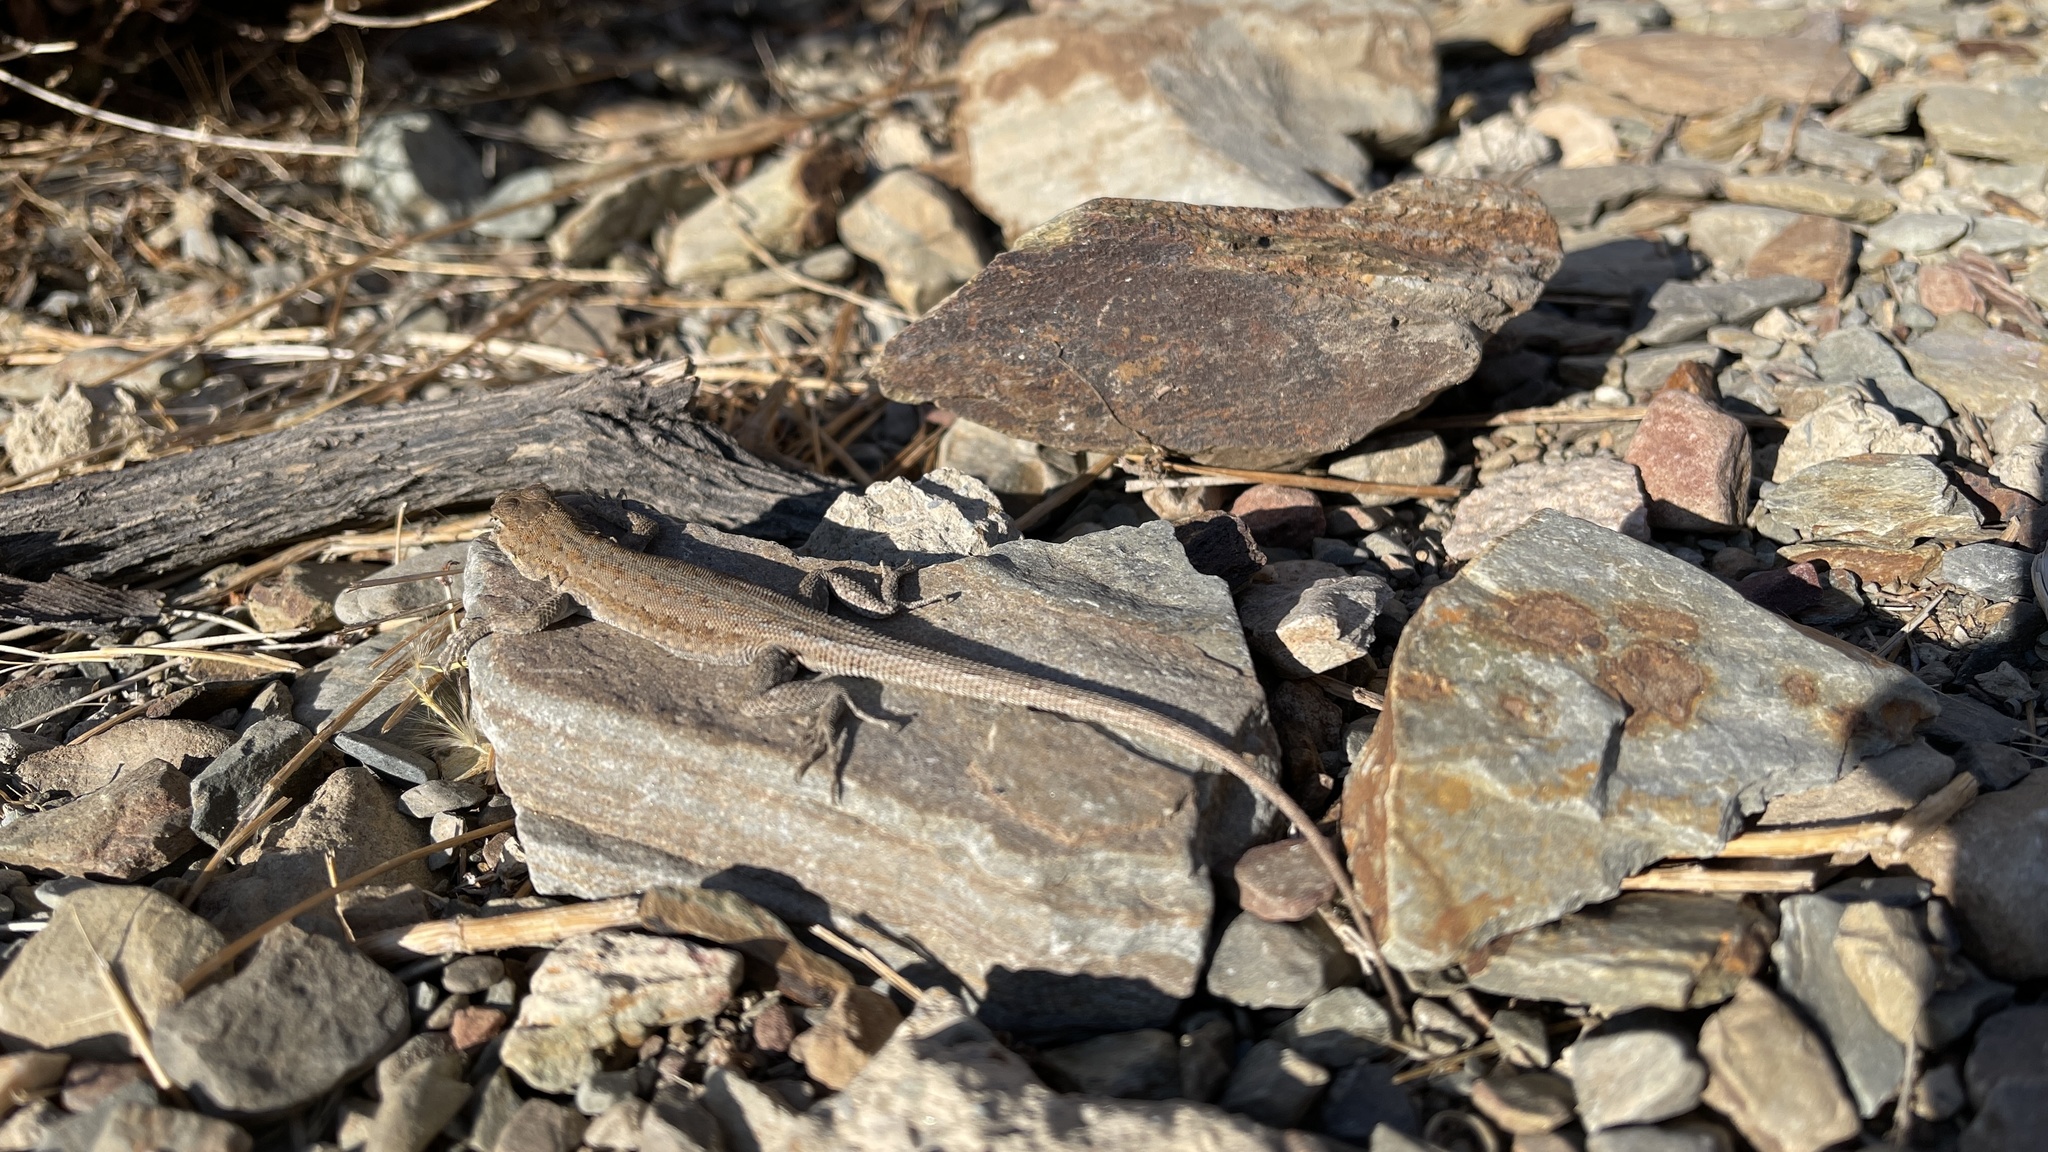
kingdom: Animalia
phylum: Chordata
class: Squamata
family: Phrynosomatidae
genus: Uta
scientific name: Uta stansburiana
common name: Side-blotched lizard
